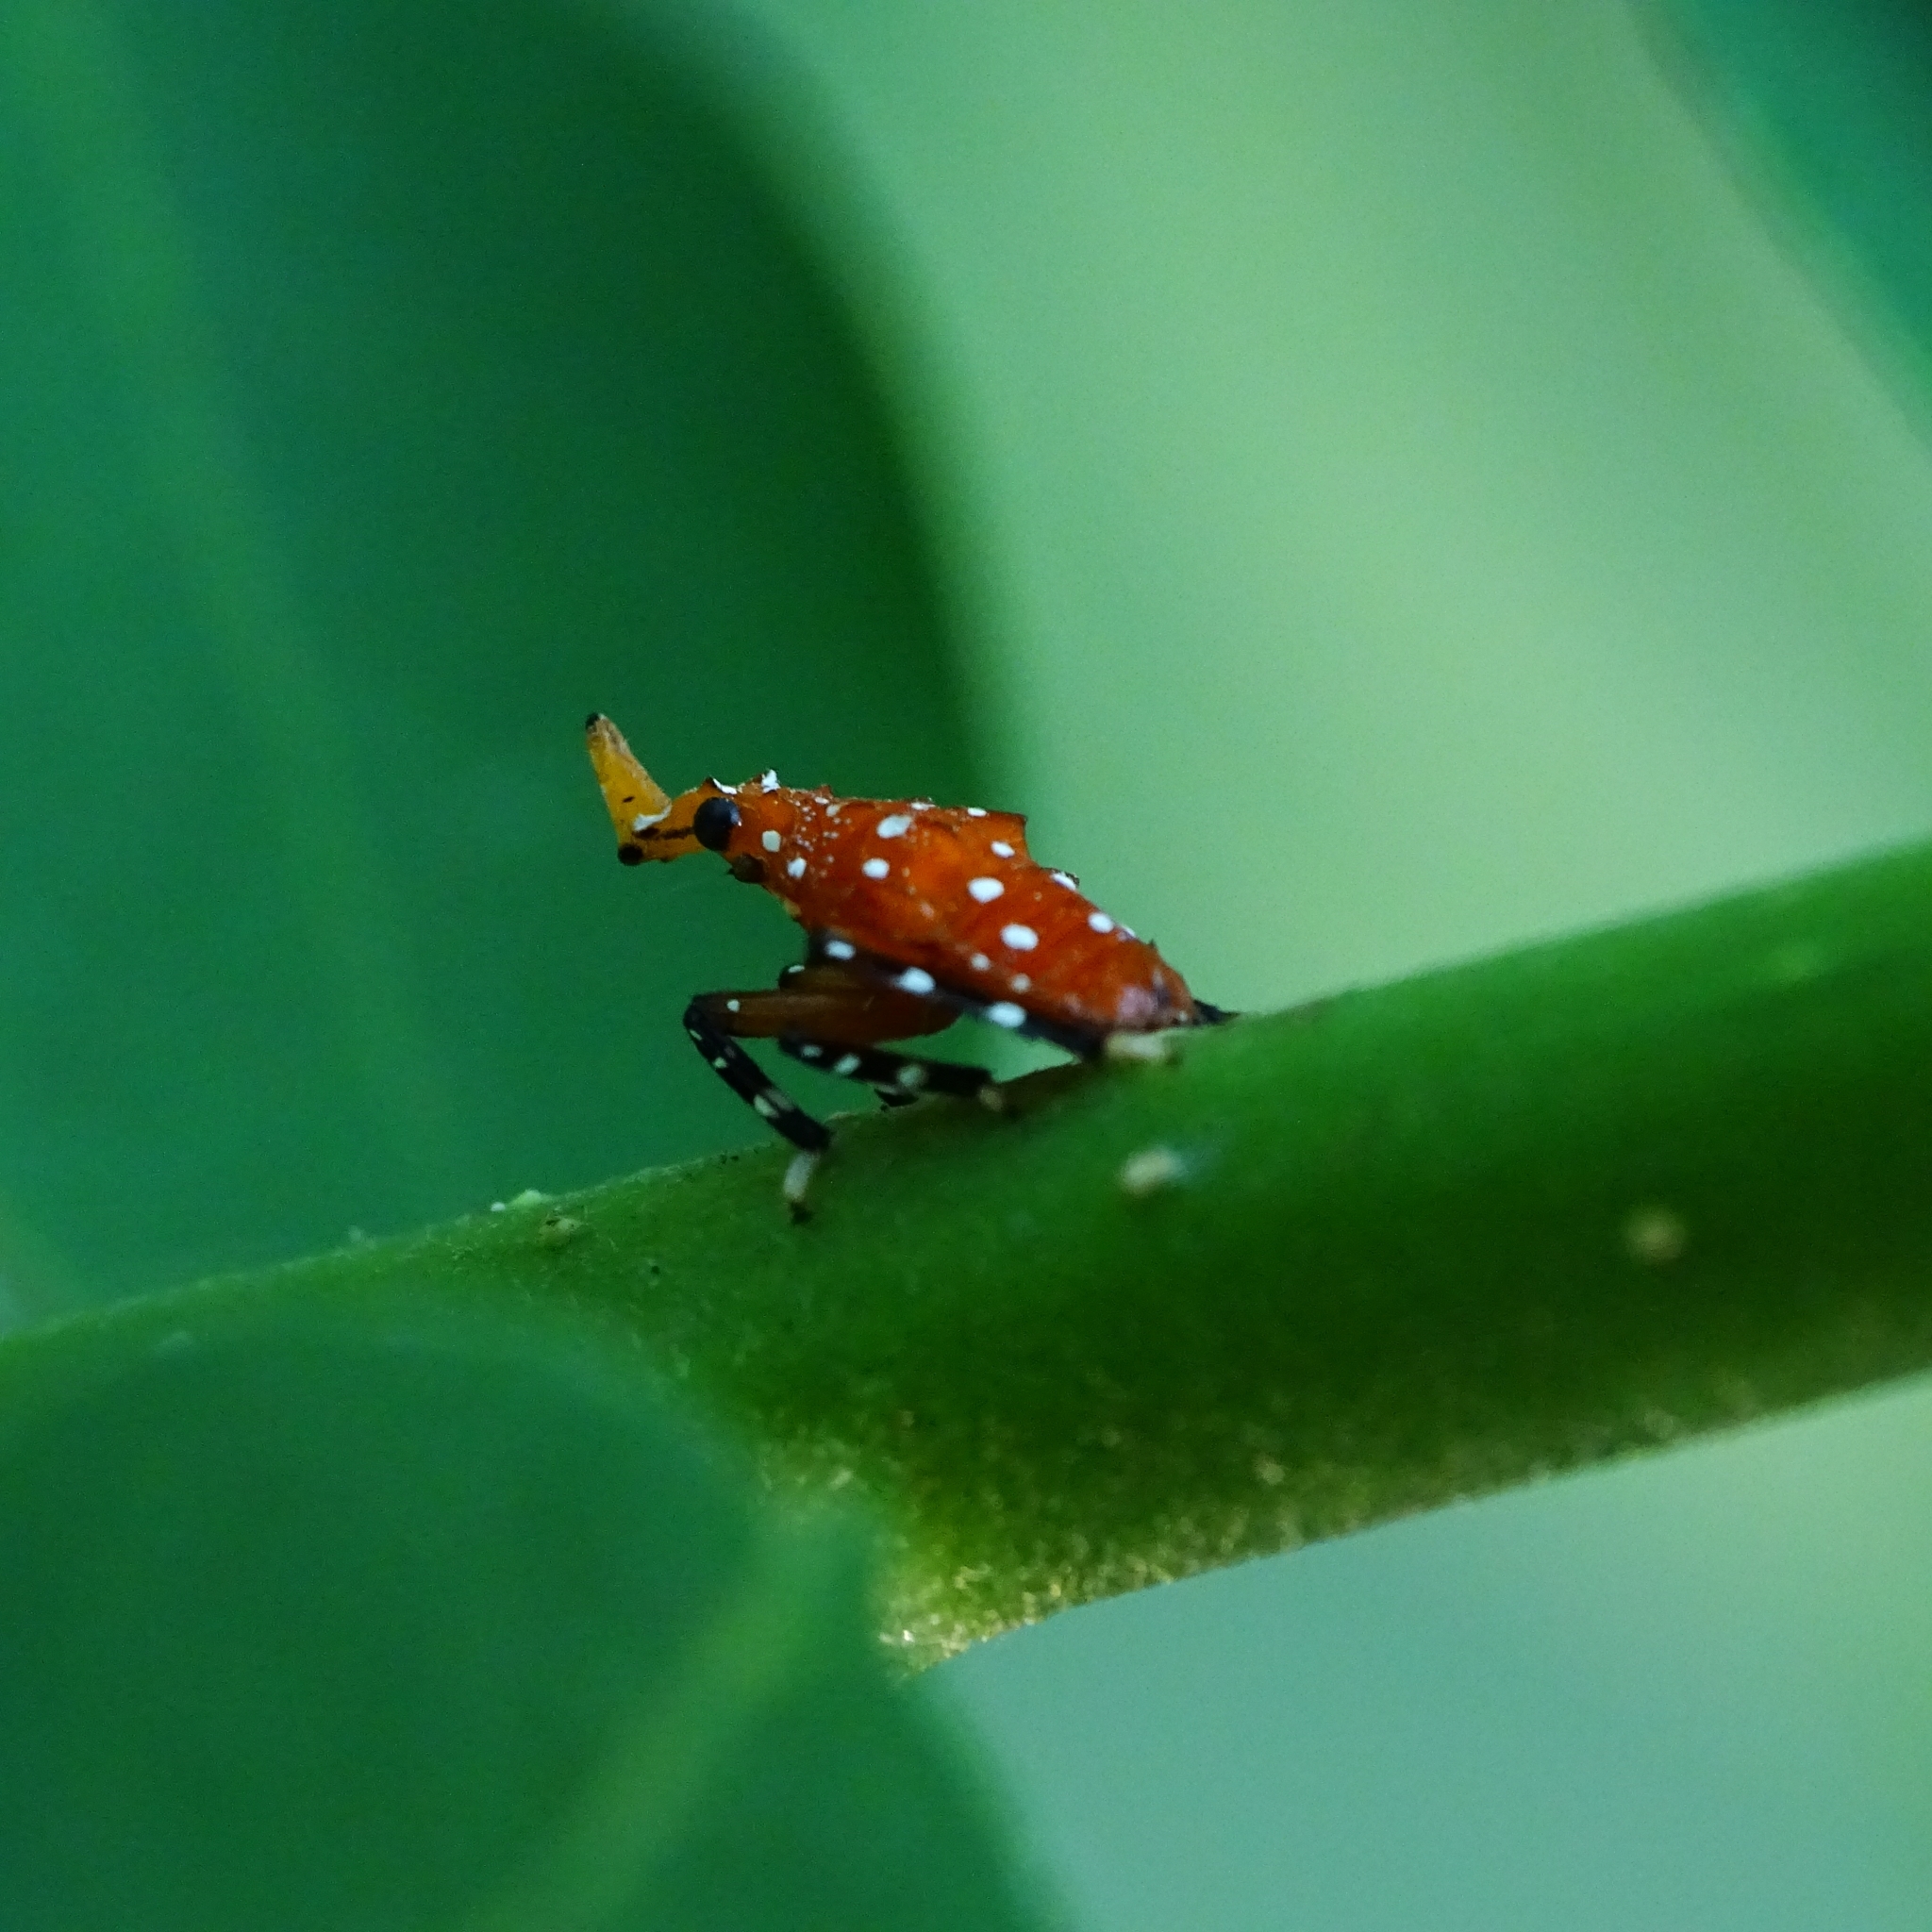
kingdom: Animalia
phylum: Arthropoda
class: Insecta
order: Hemiptera
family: Fulgoridae
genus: Kalidasa
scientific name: Kalidasa lanata
